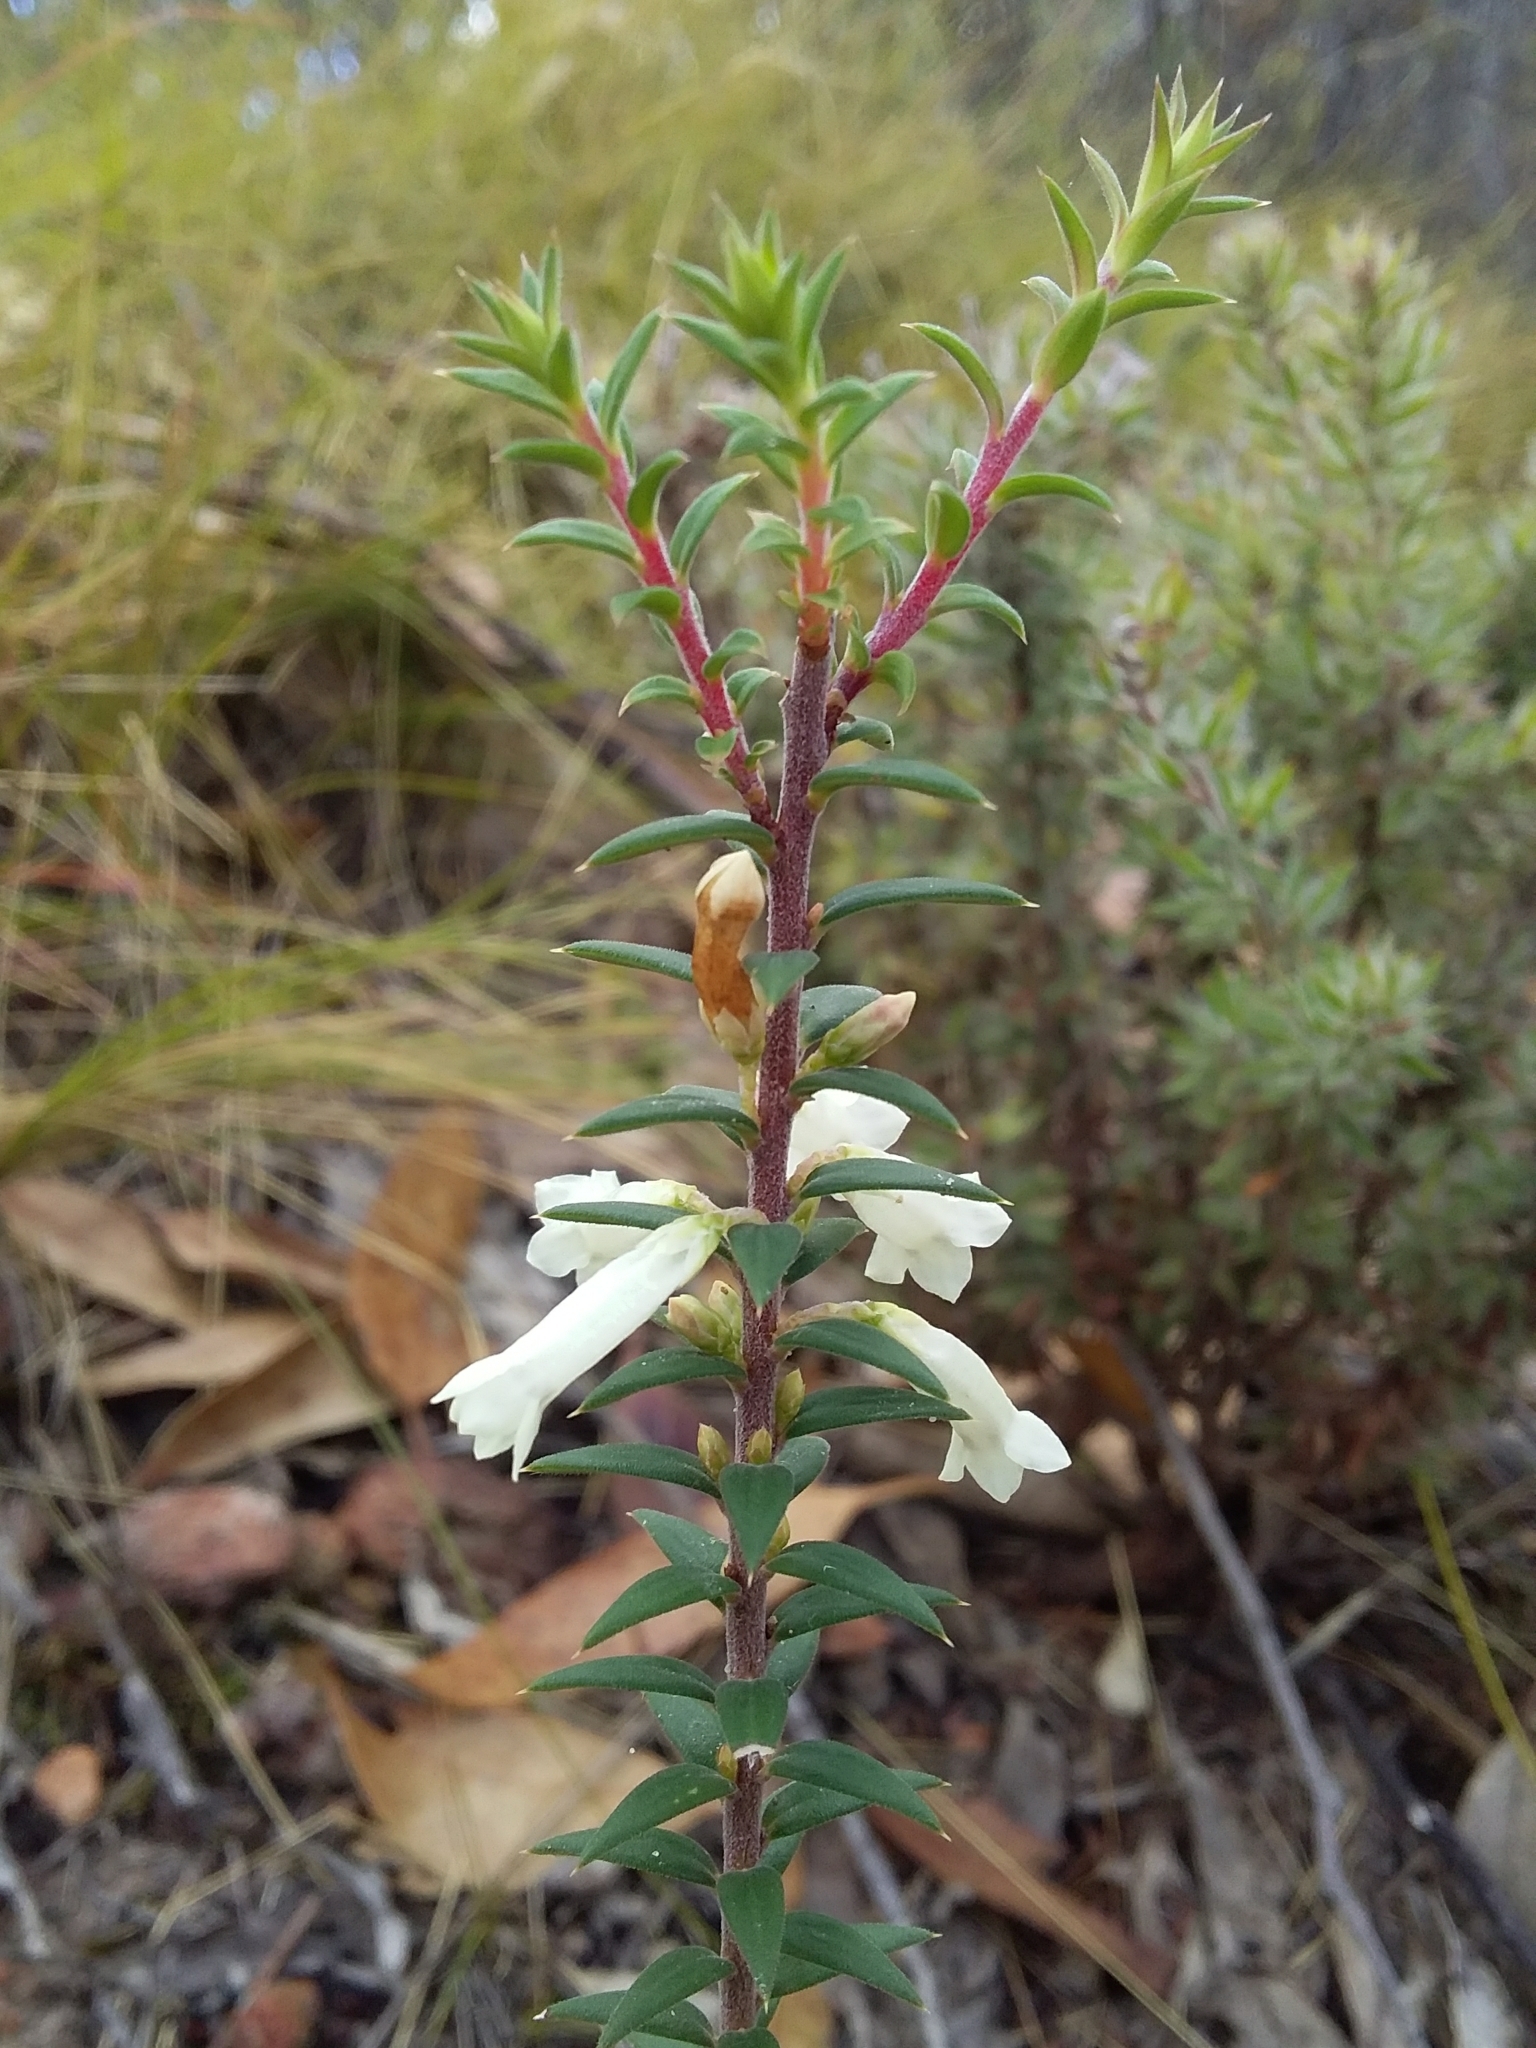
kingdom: Plantae
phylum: Tracheophyta
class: Magnoliopsida
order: Ericales
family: Ericaceae
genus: Epacris
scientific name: Epacris impressa
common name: Common-heath
